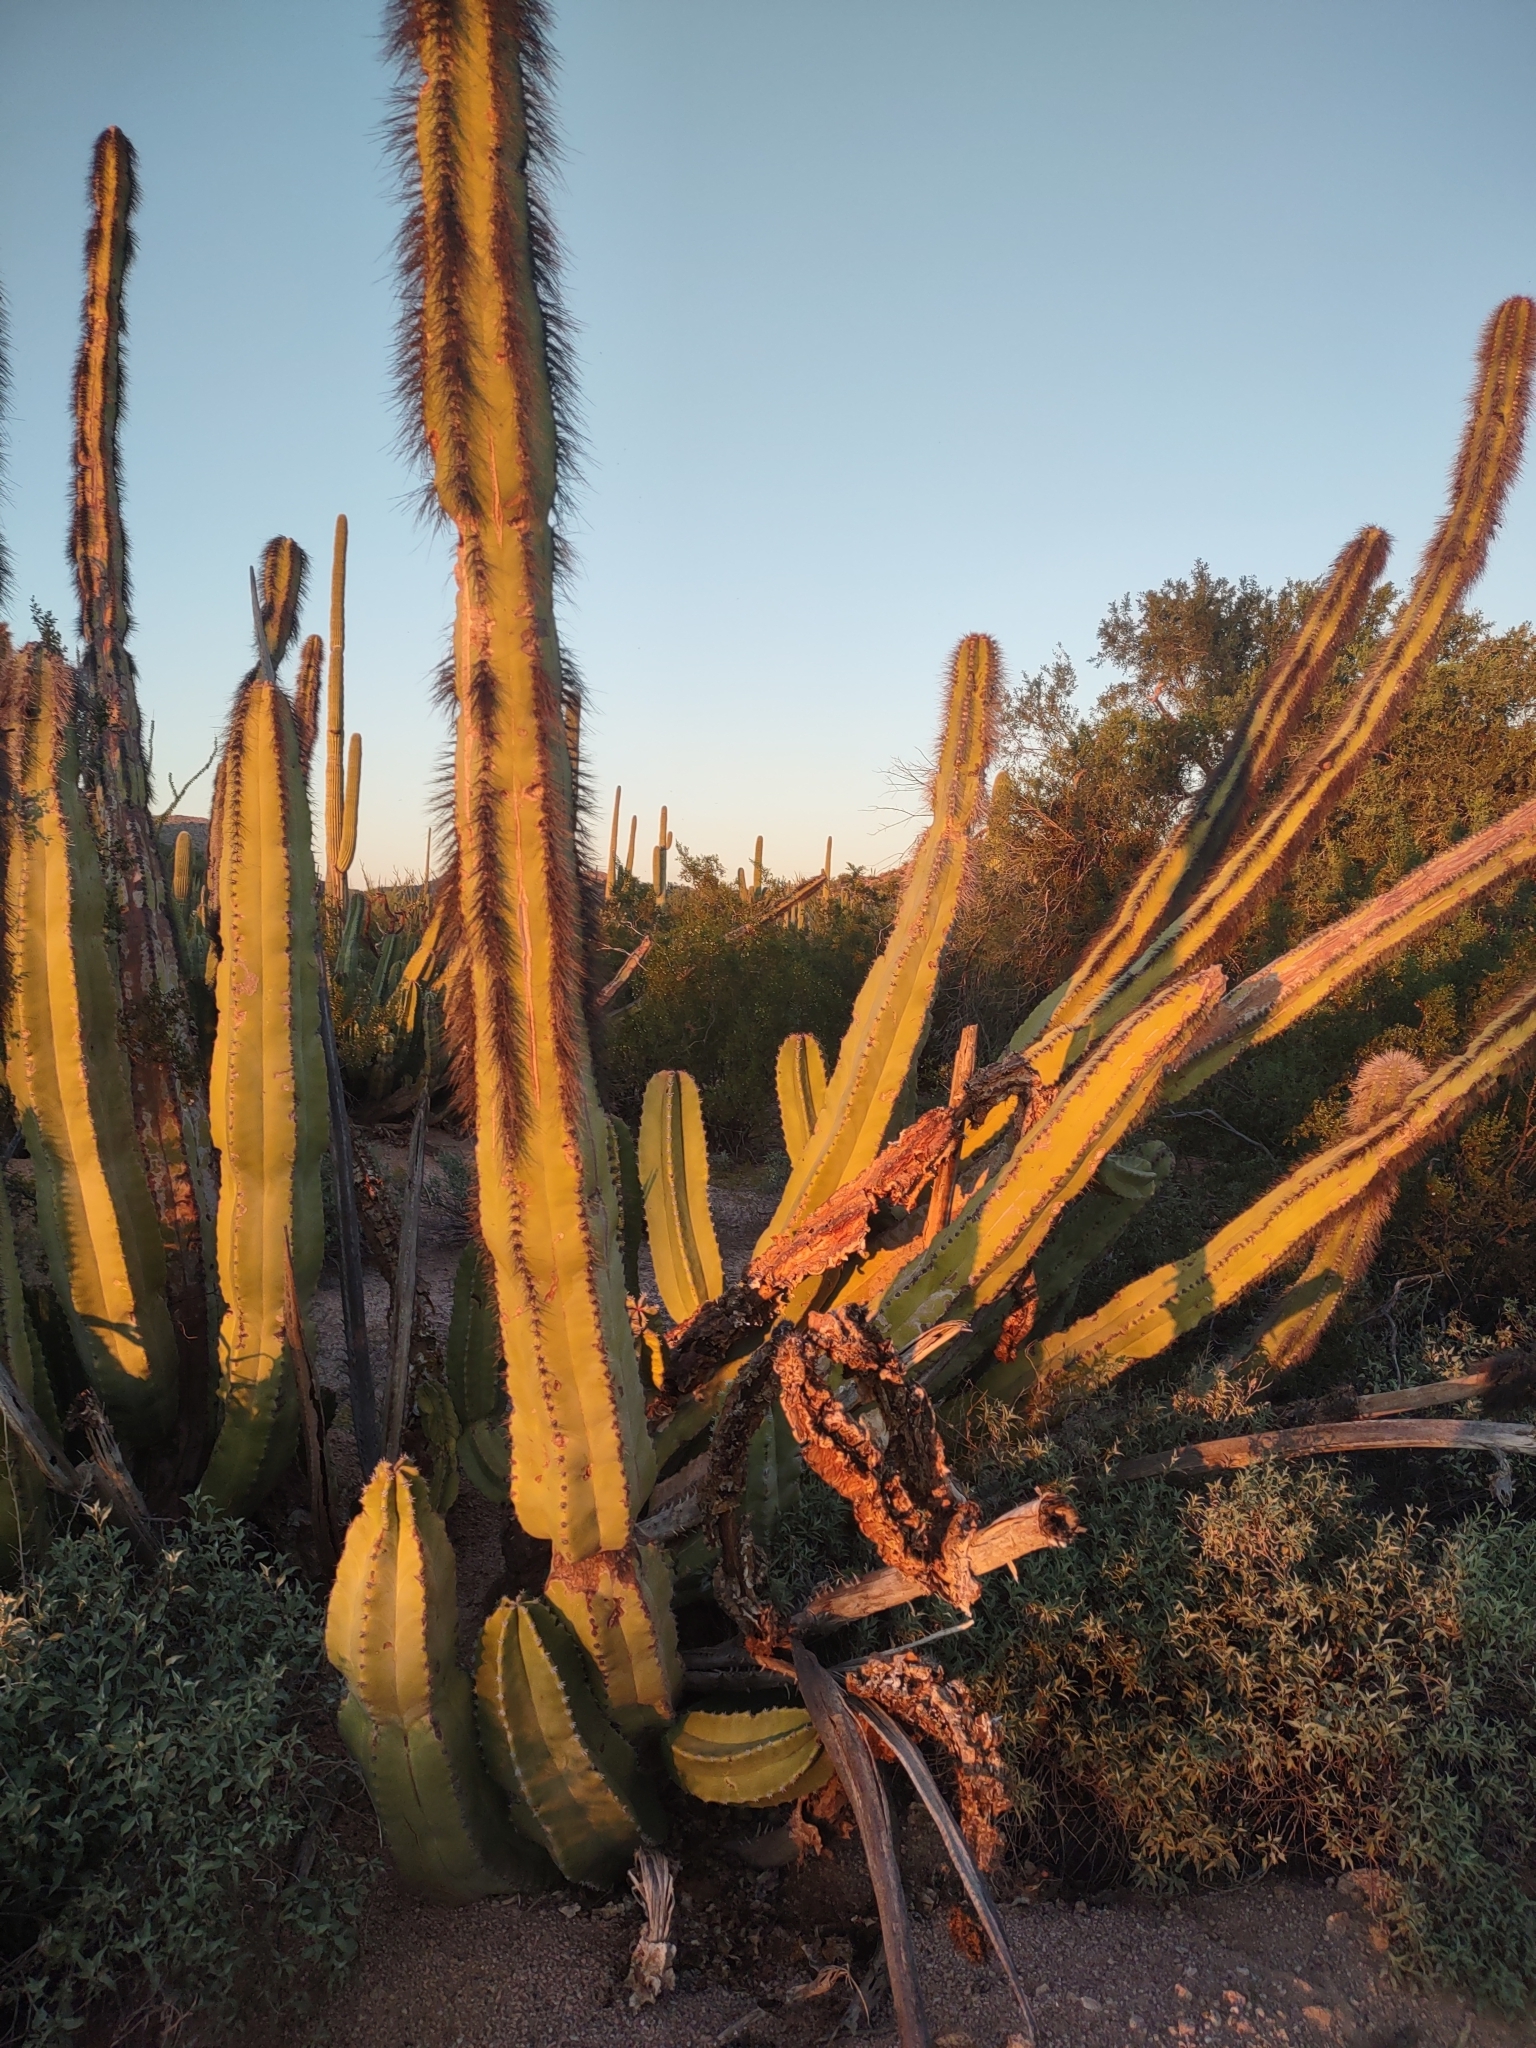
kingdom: Plantae
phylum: Tracheophyta
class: Magnoliopsida
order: Caryophyllales
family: Cactaceae
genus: Pachycereus
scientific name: Pachycereus schottii
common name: Senita cactus
